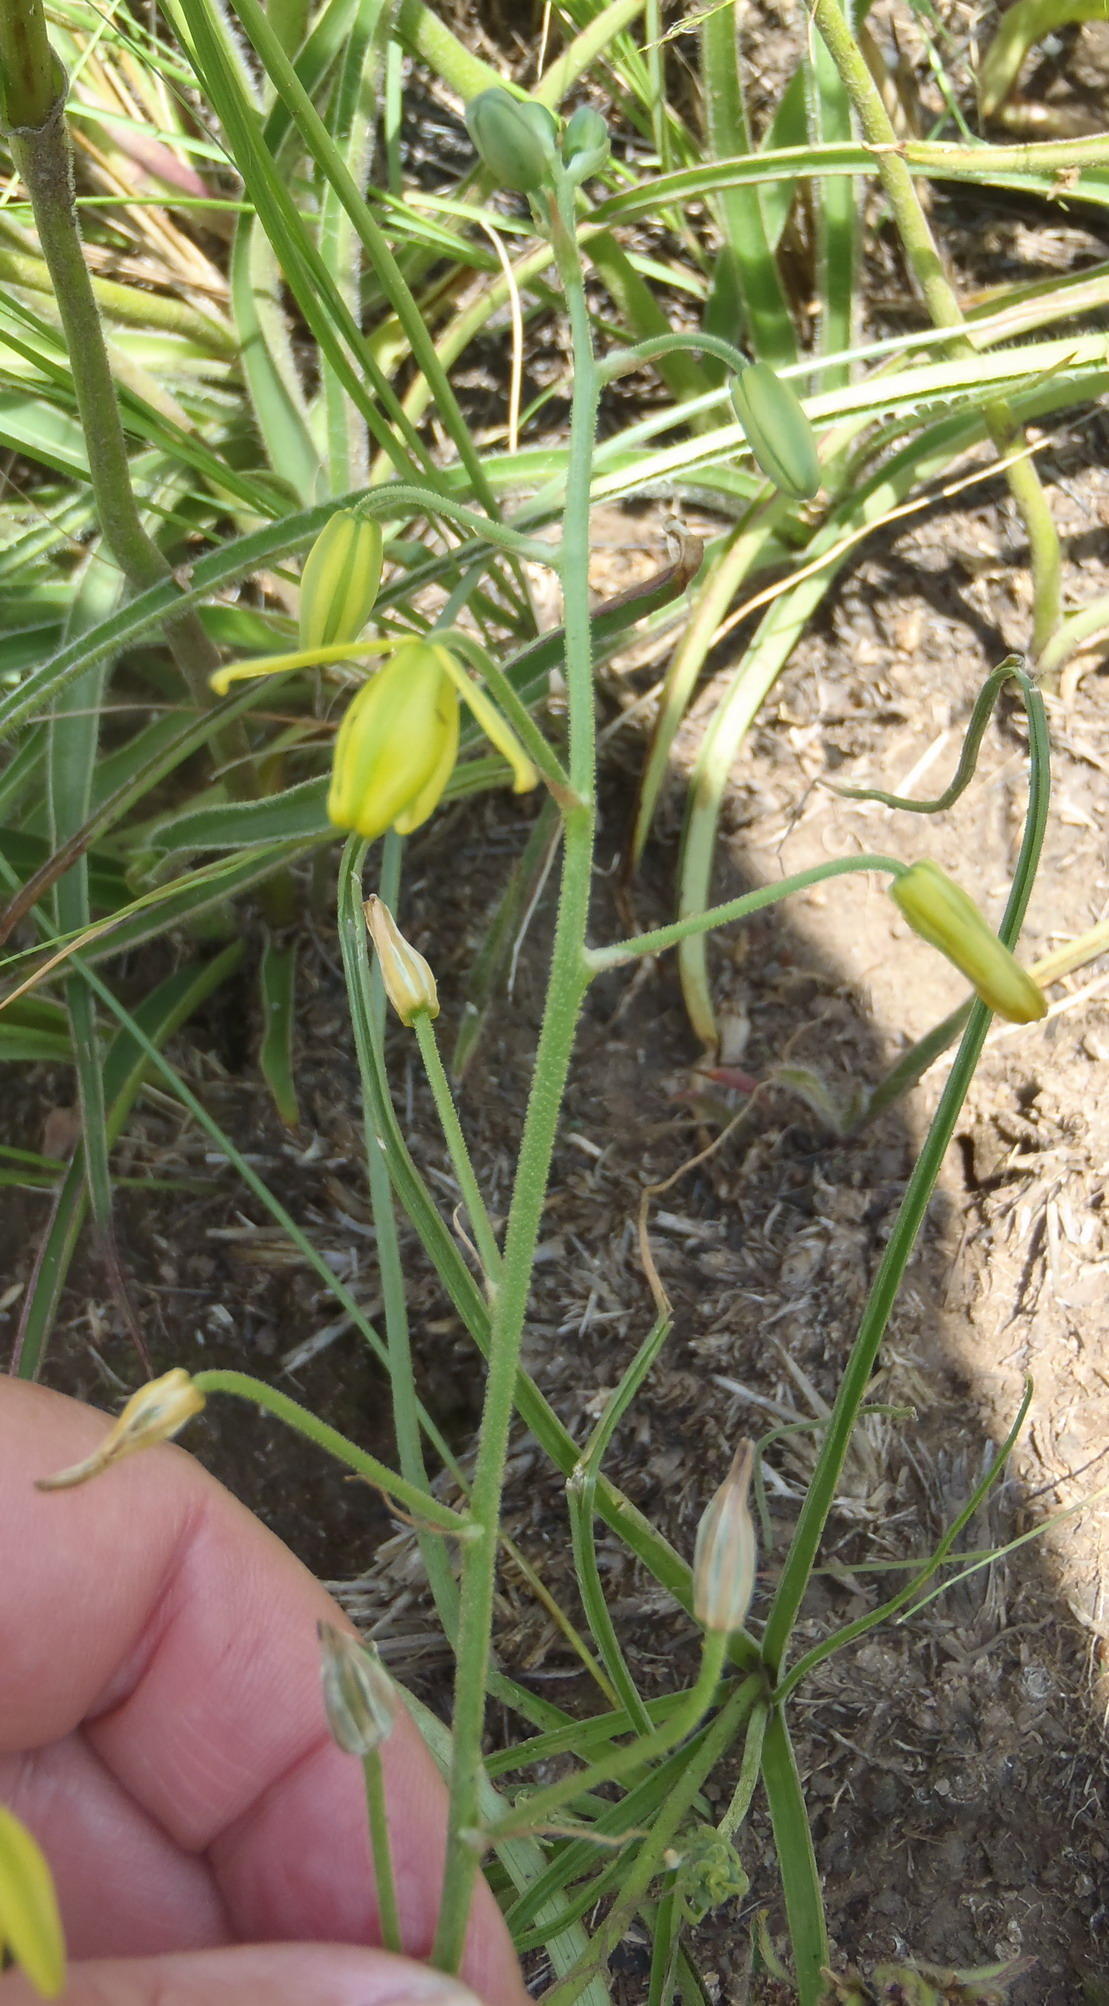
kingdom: Plantae
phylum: Tracheophyta
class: Liliopsida
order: Asparagales
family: Asparagaceae
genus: Albuca
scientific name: Albuca shawii
